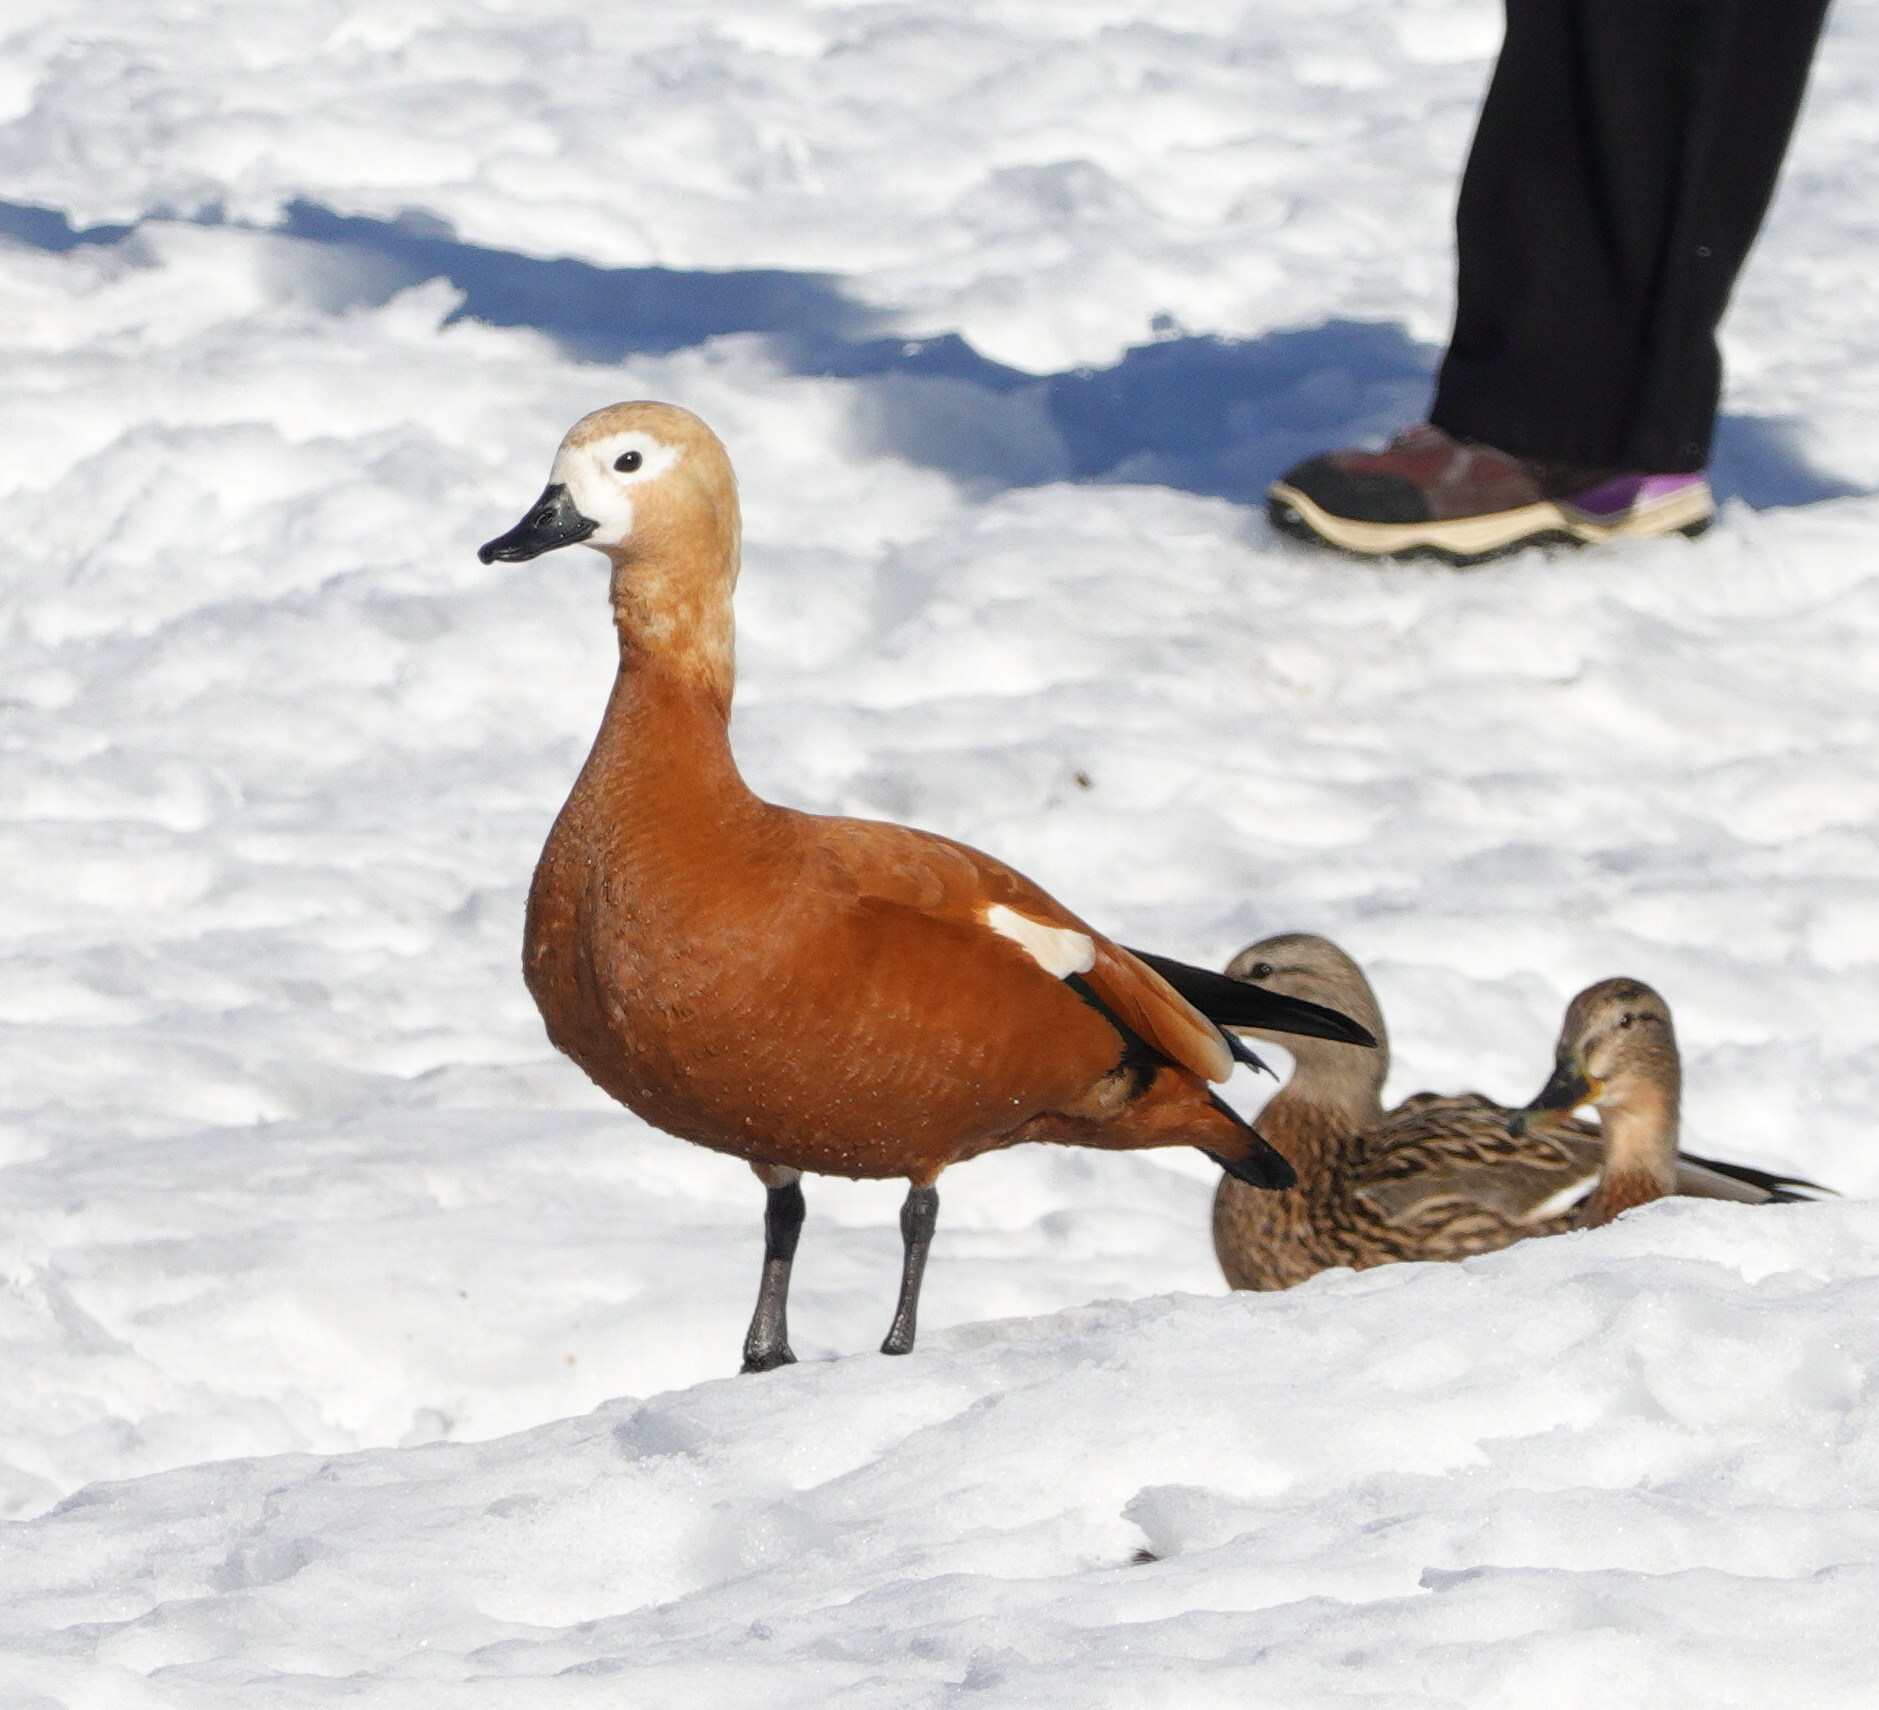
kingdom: Animalia
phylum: Chordata
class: Aves
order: Anseriformes
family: Anatidae
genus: Tadorna
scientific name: Tadorna ferruginea
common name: Ruddy shelduck
